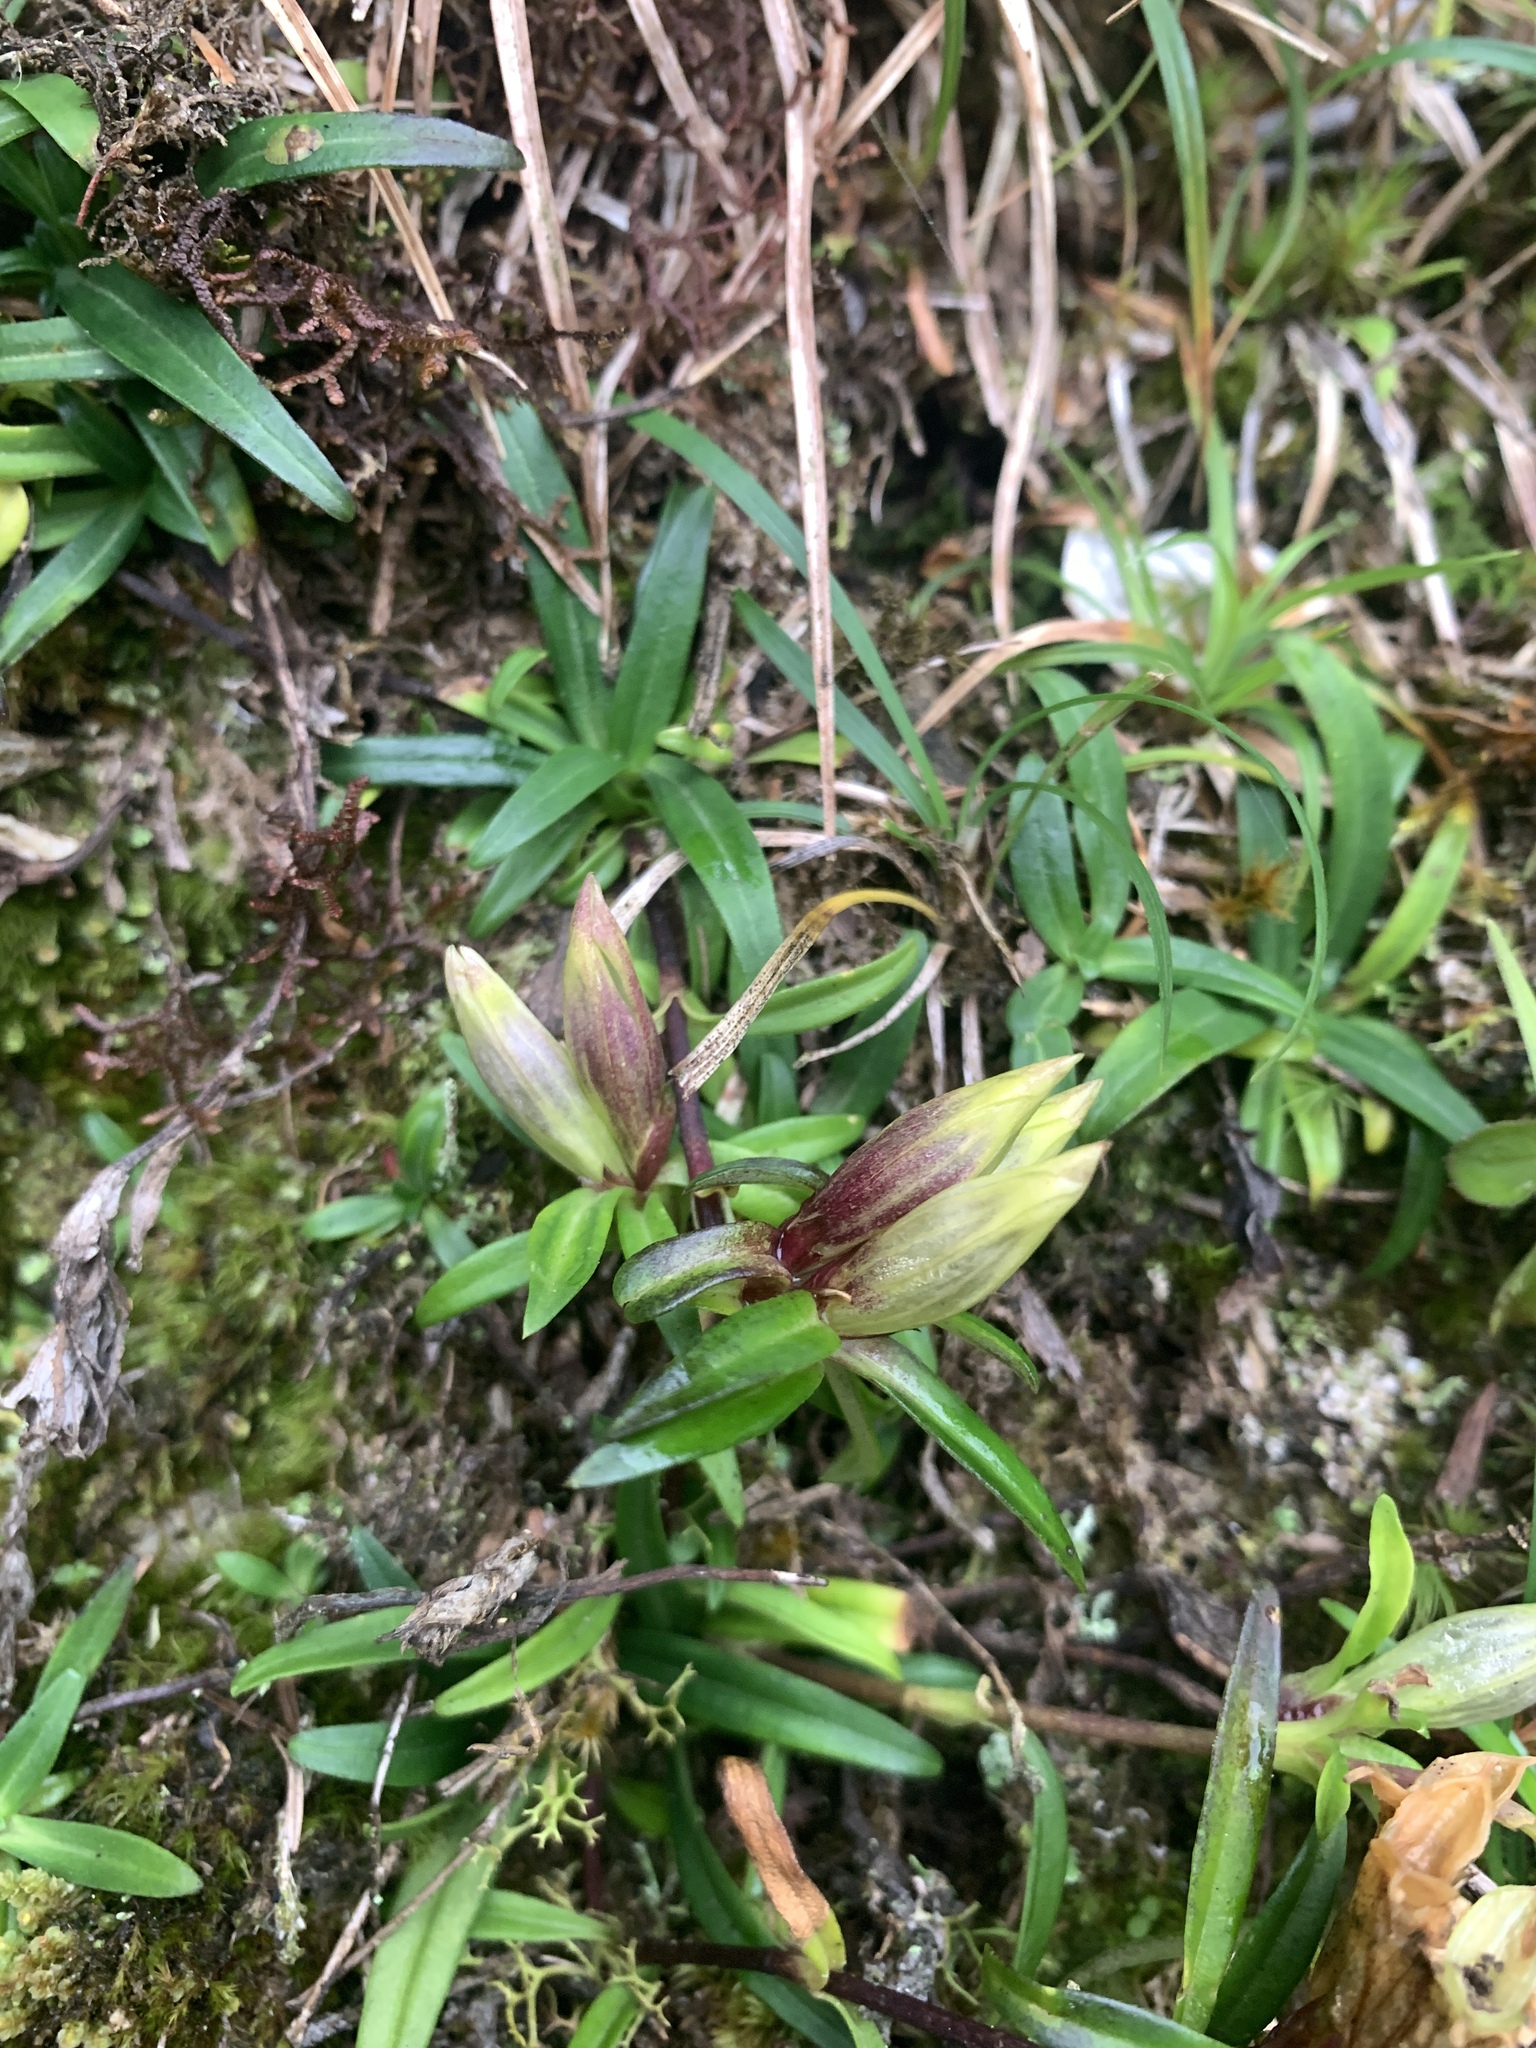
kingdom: Plantae
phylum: Tracheophyta
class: Magnoliopsida
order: Gentianales
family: Gentianaceae
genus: Gentiana
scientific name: Gentiana davidii
